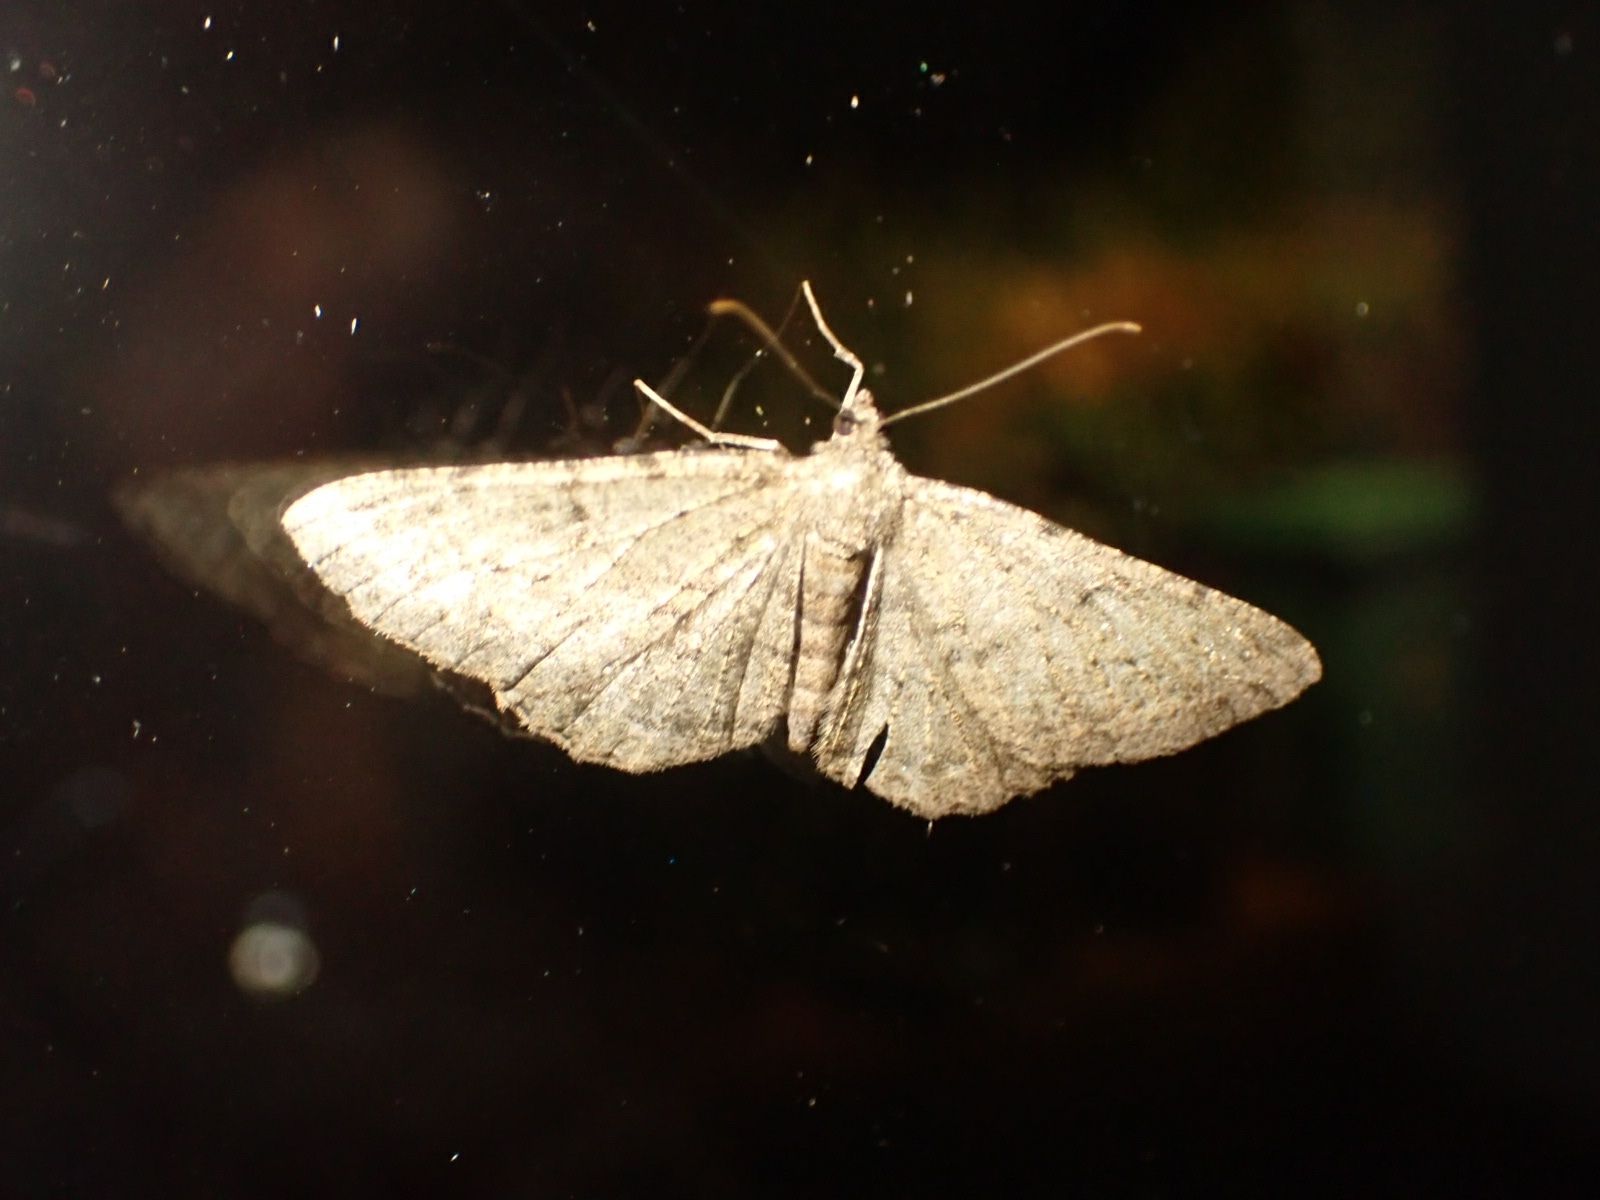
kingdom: Animalia
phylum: Arthropoda
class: Insecta
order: Lepidoptera
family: Geometridae
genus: Peribatodes
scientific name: Peribatodes rhomboidaria
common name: Willow beauty
